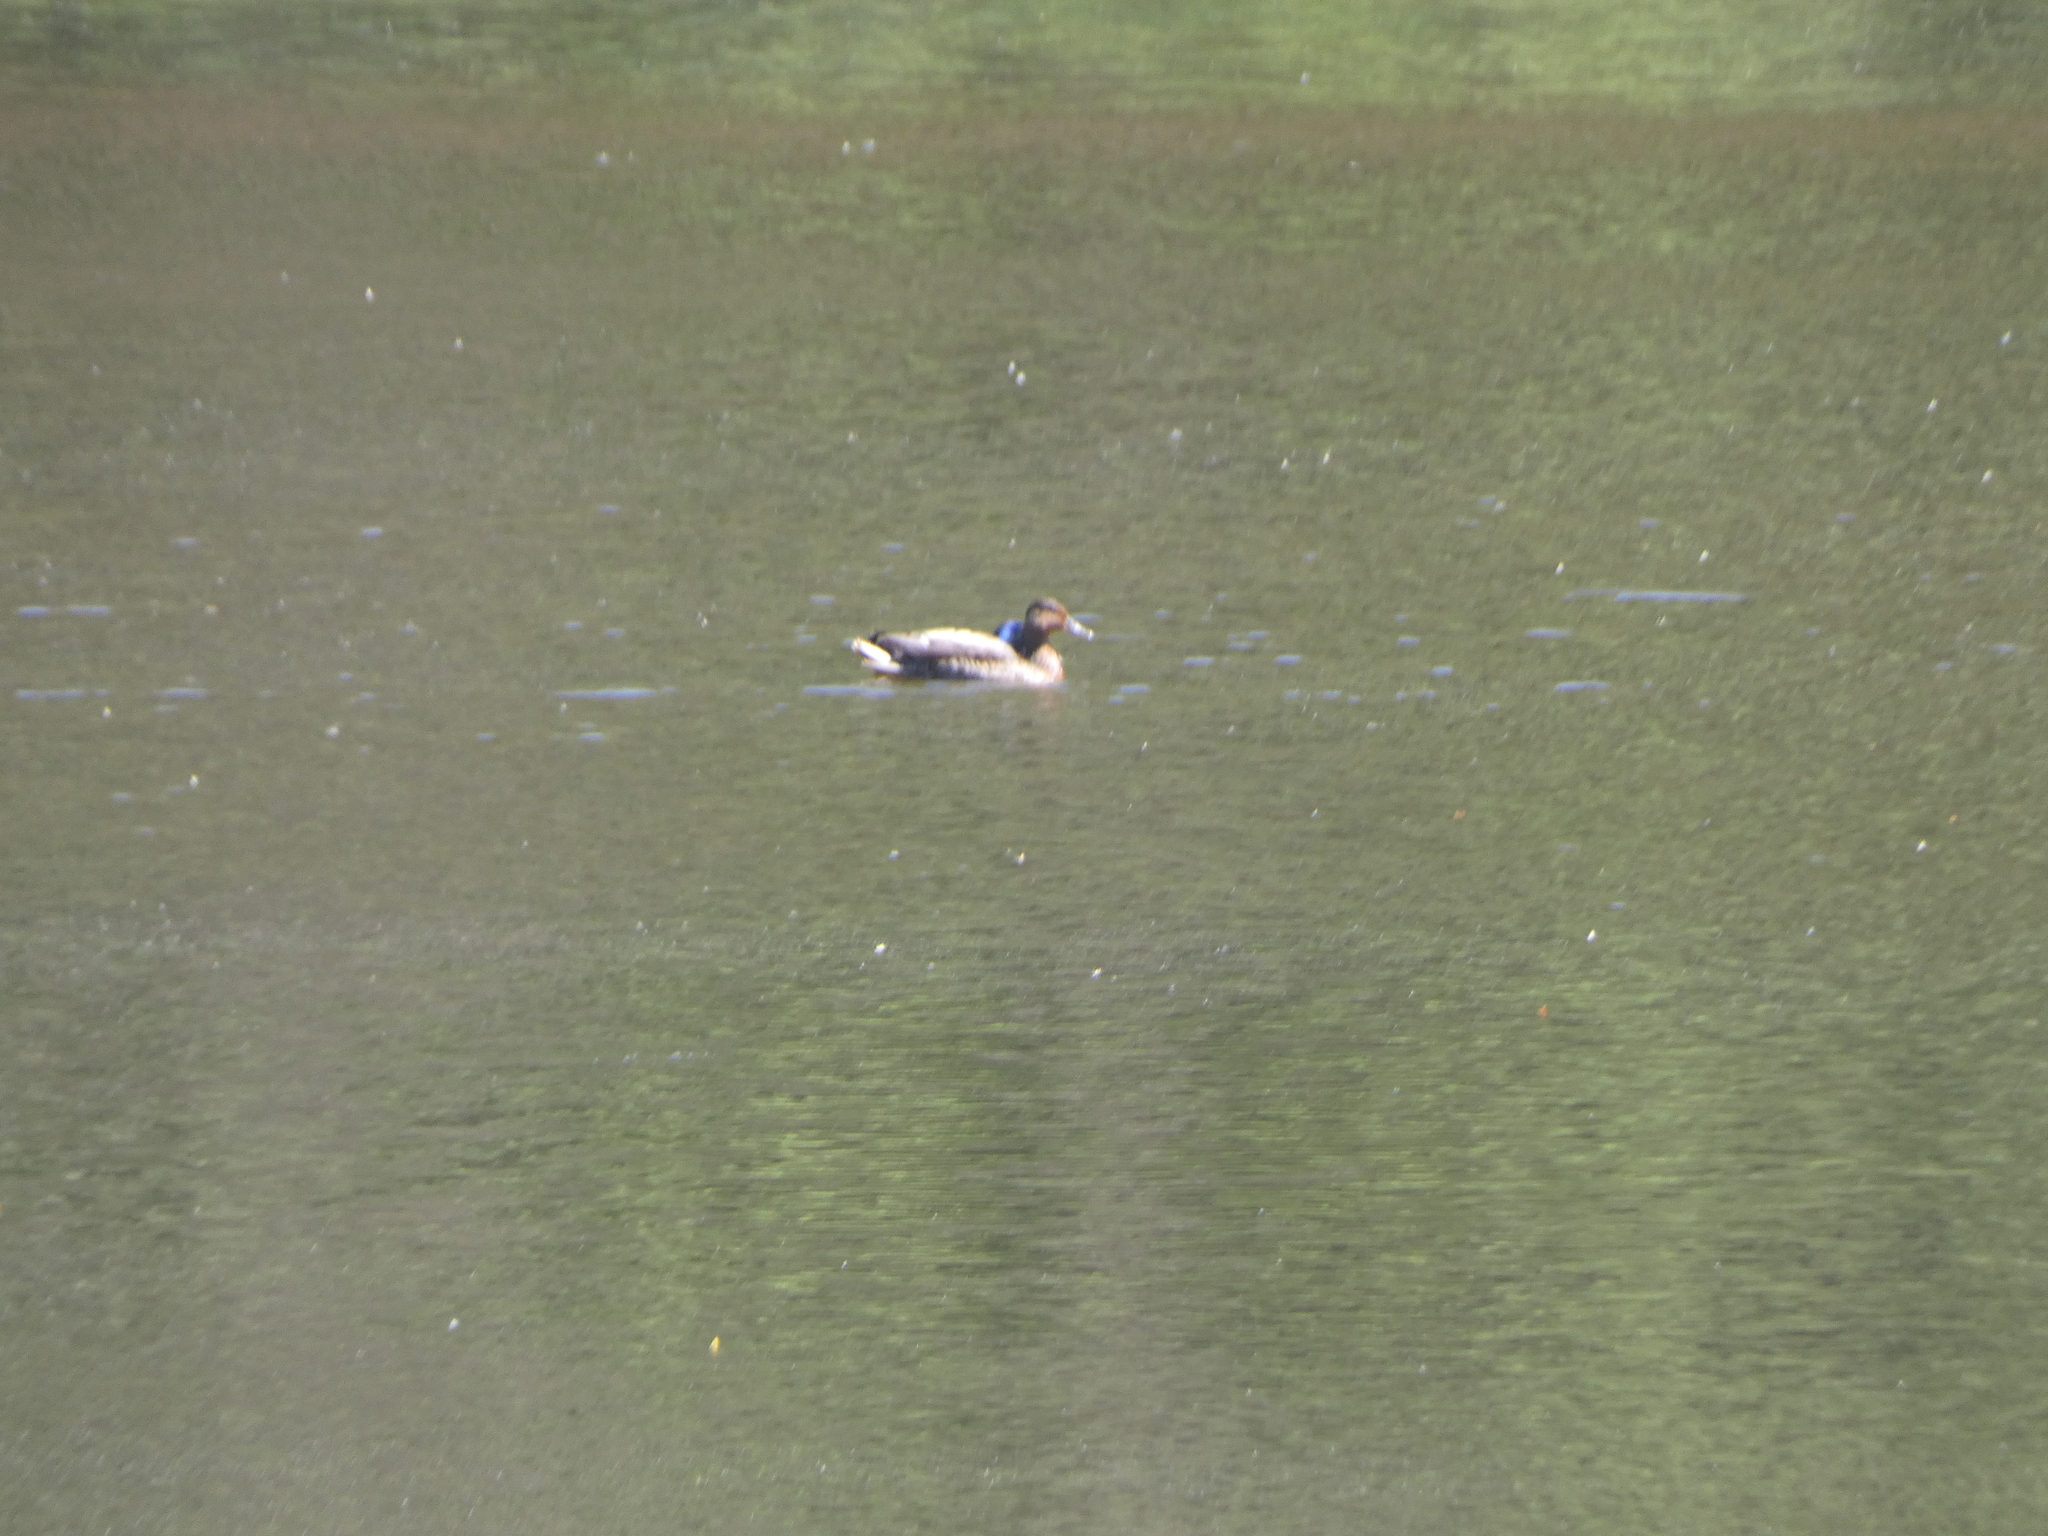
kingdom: Animalia
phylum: Chordata
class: Aves
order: Anseriformes
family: Anatidae
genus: Anas
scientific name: Anas platyrhynchos
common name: Mallard
